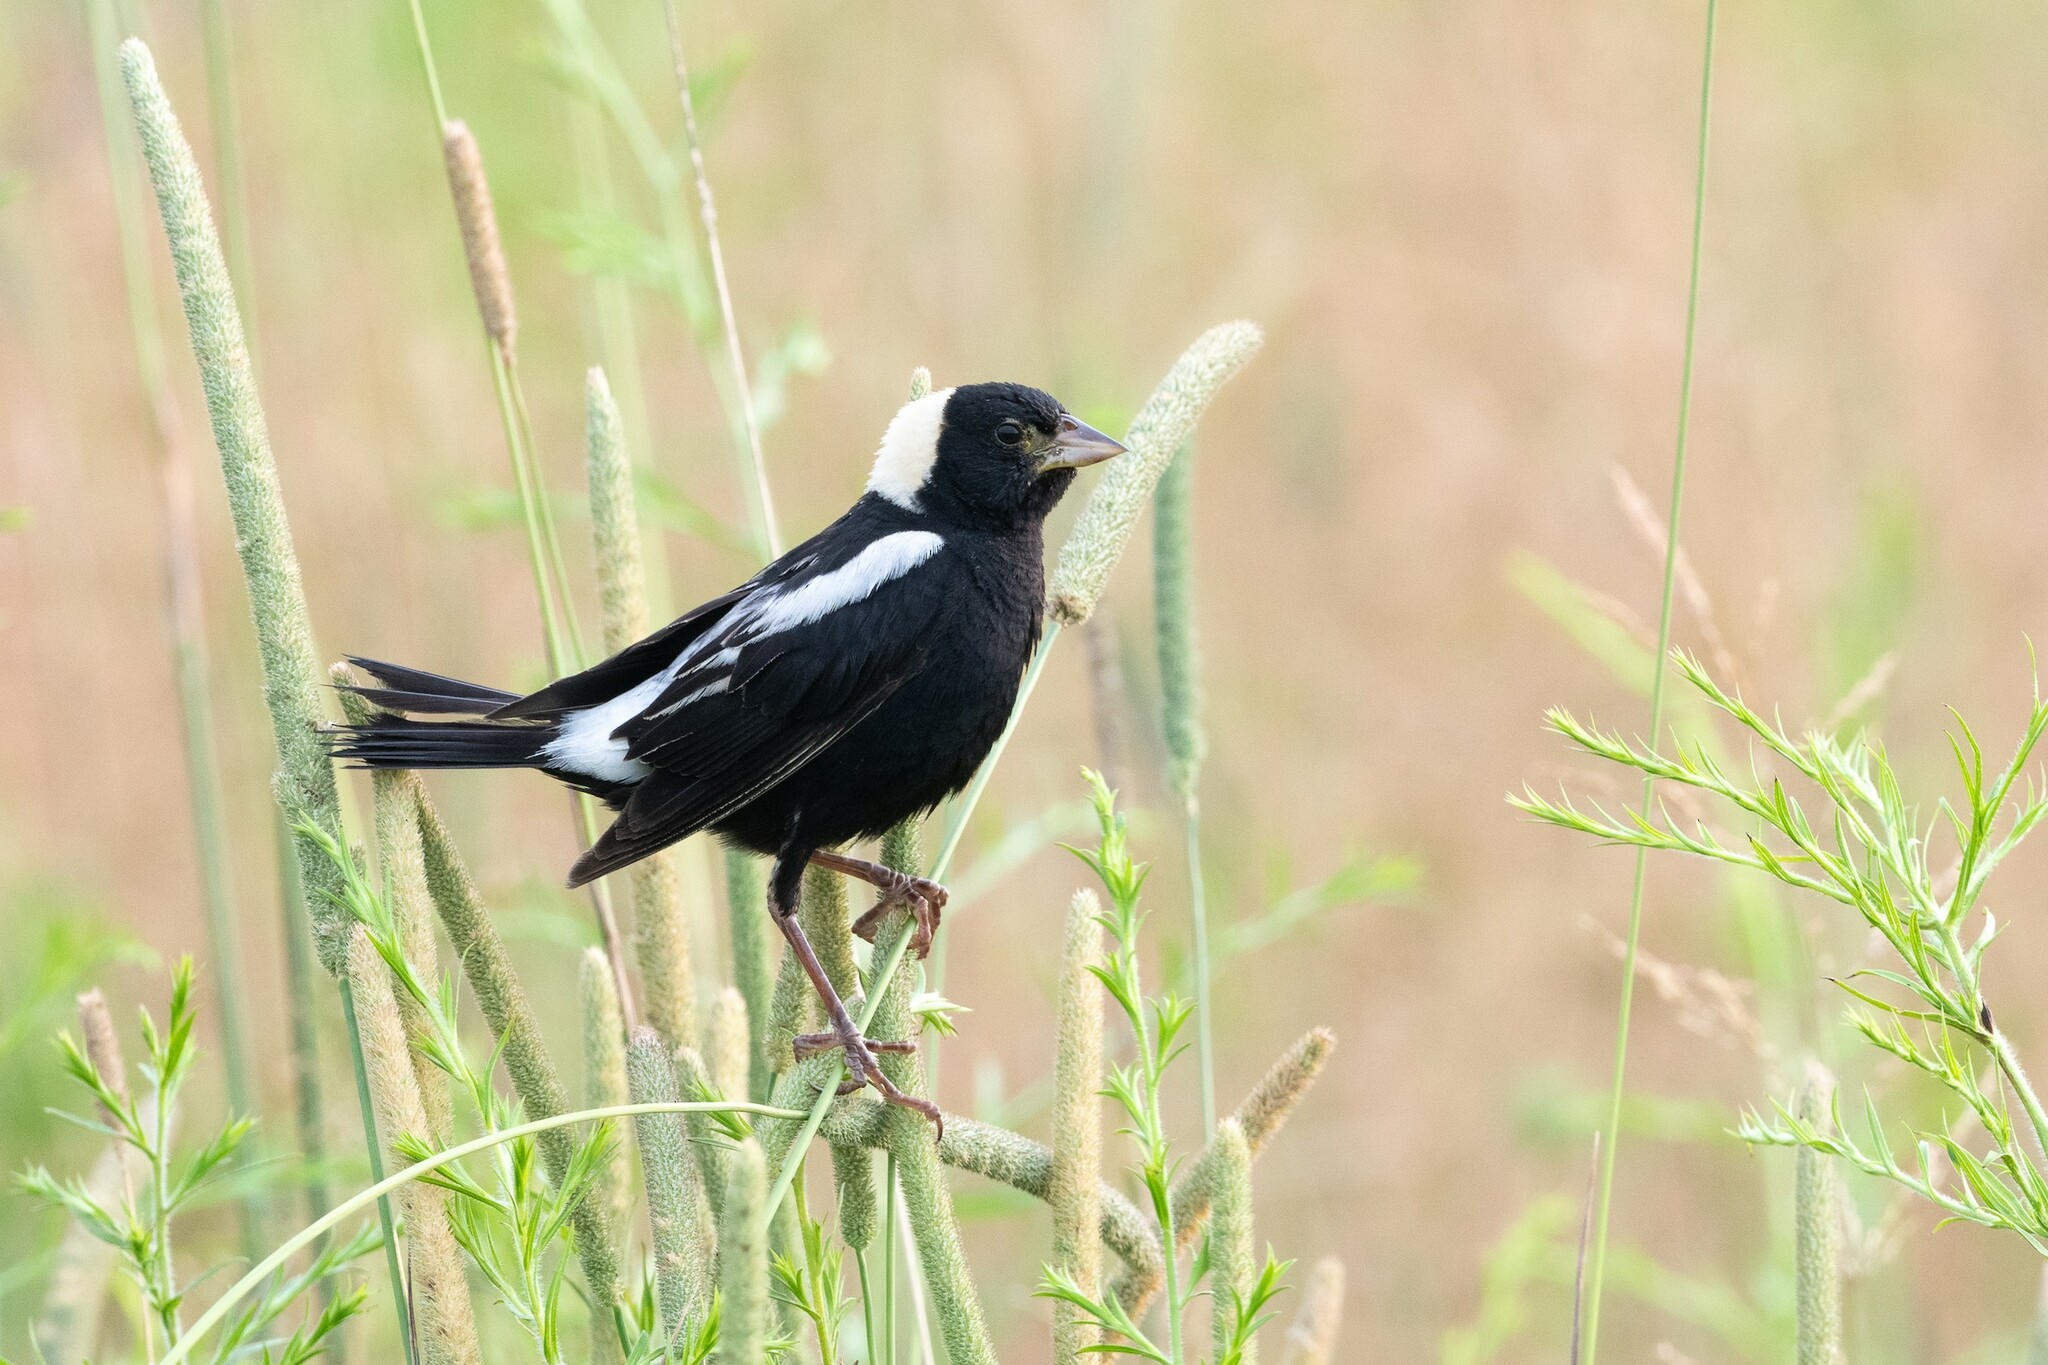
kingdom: Animalia
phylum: Chordata
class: Aves
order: Passeriformes
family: Icteridae
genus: Dolichonyx
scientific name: Dolichonyx oryzivorus
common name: Bobolink
